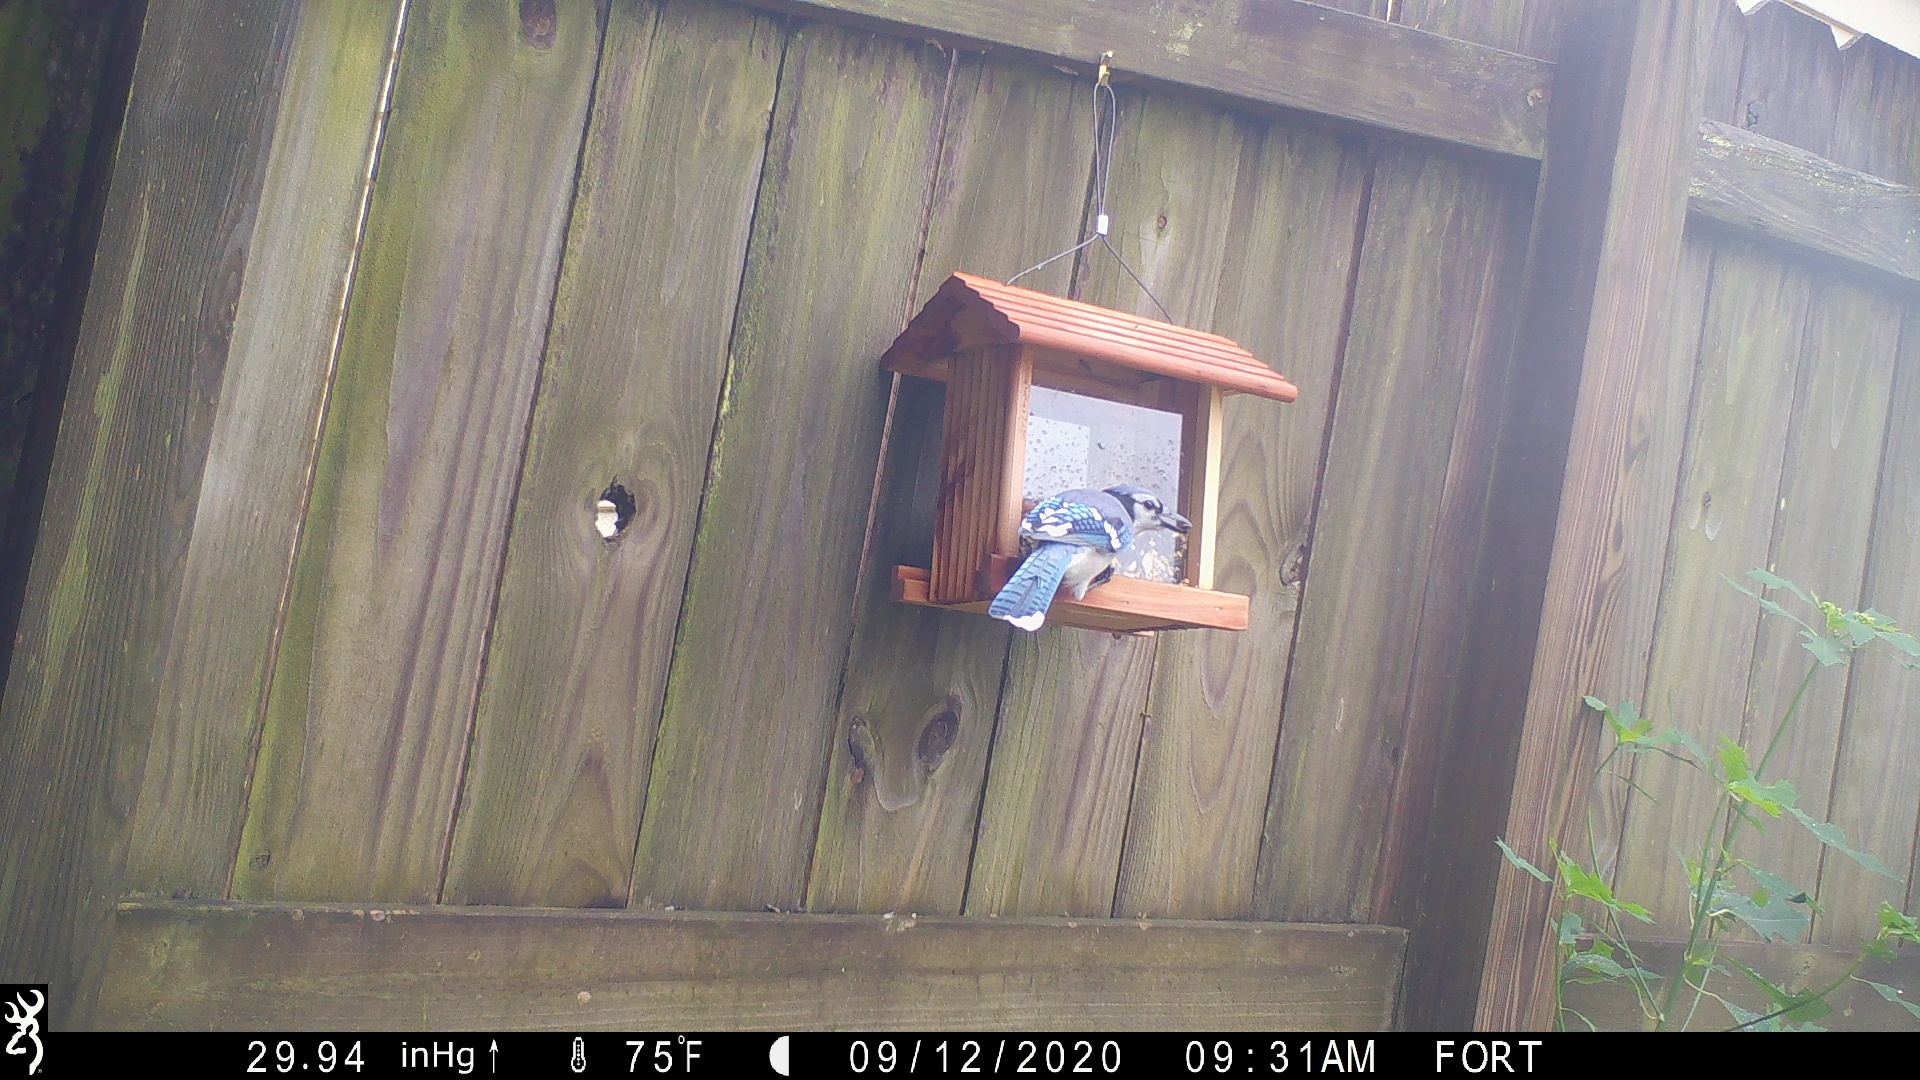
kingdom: Animalia
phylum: Chordata
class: Aves
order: Passeriformes
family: Corvidae
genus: Cyanocitta
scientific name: Cyanocitta cristata
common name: Blue jay
